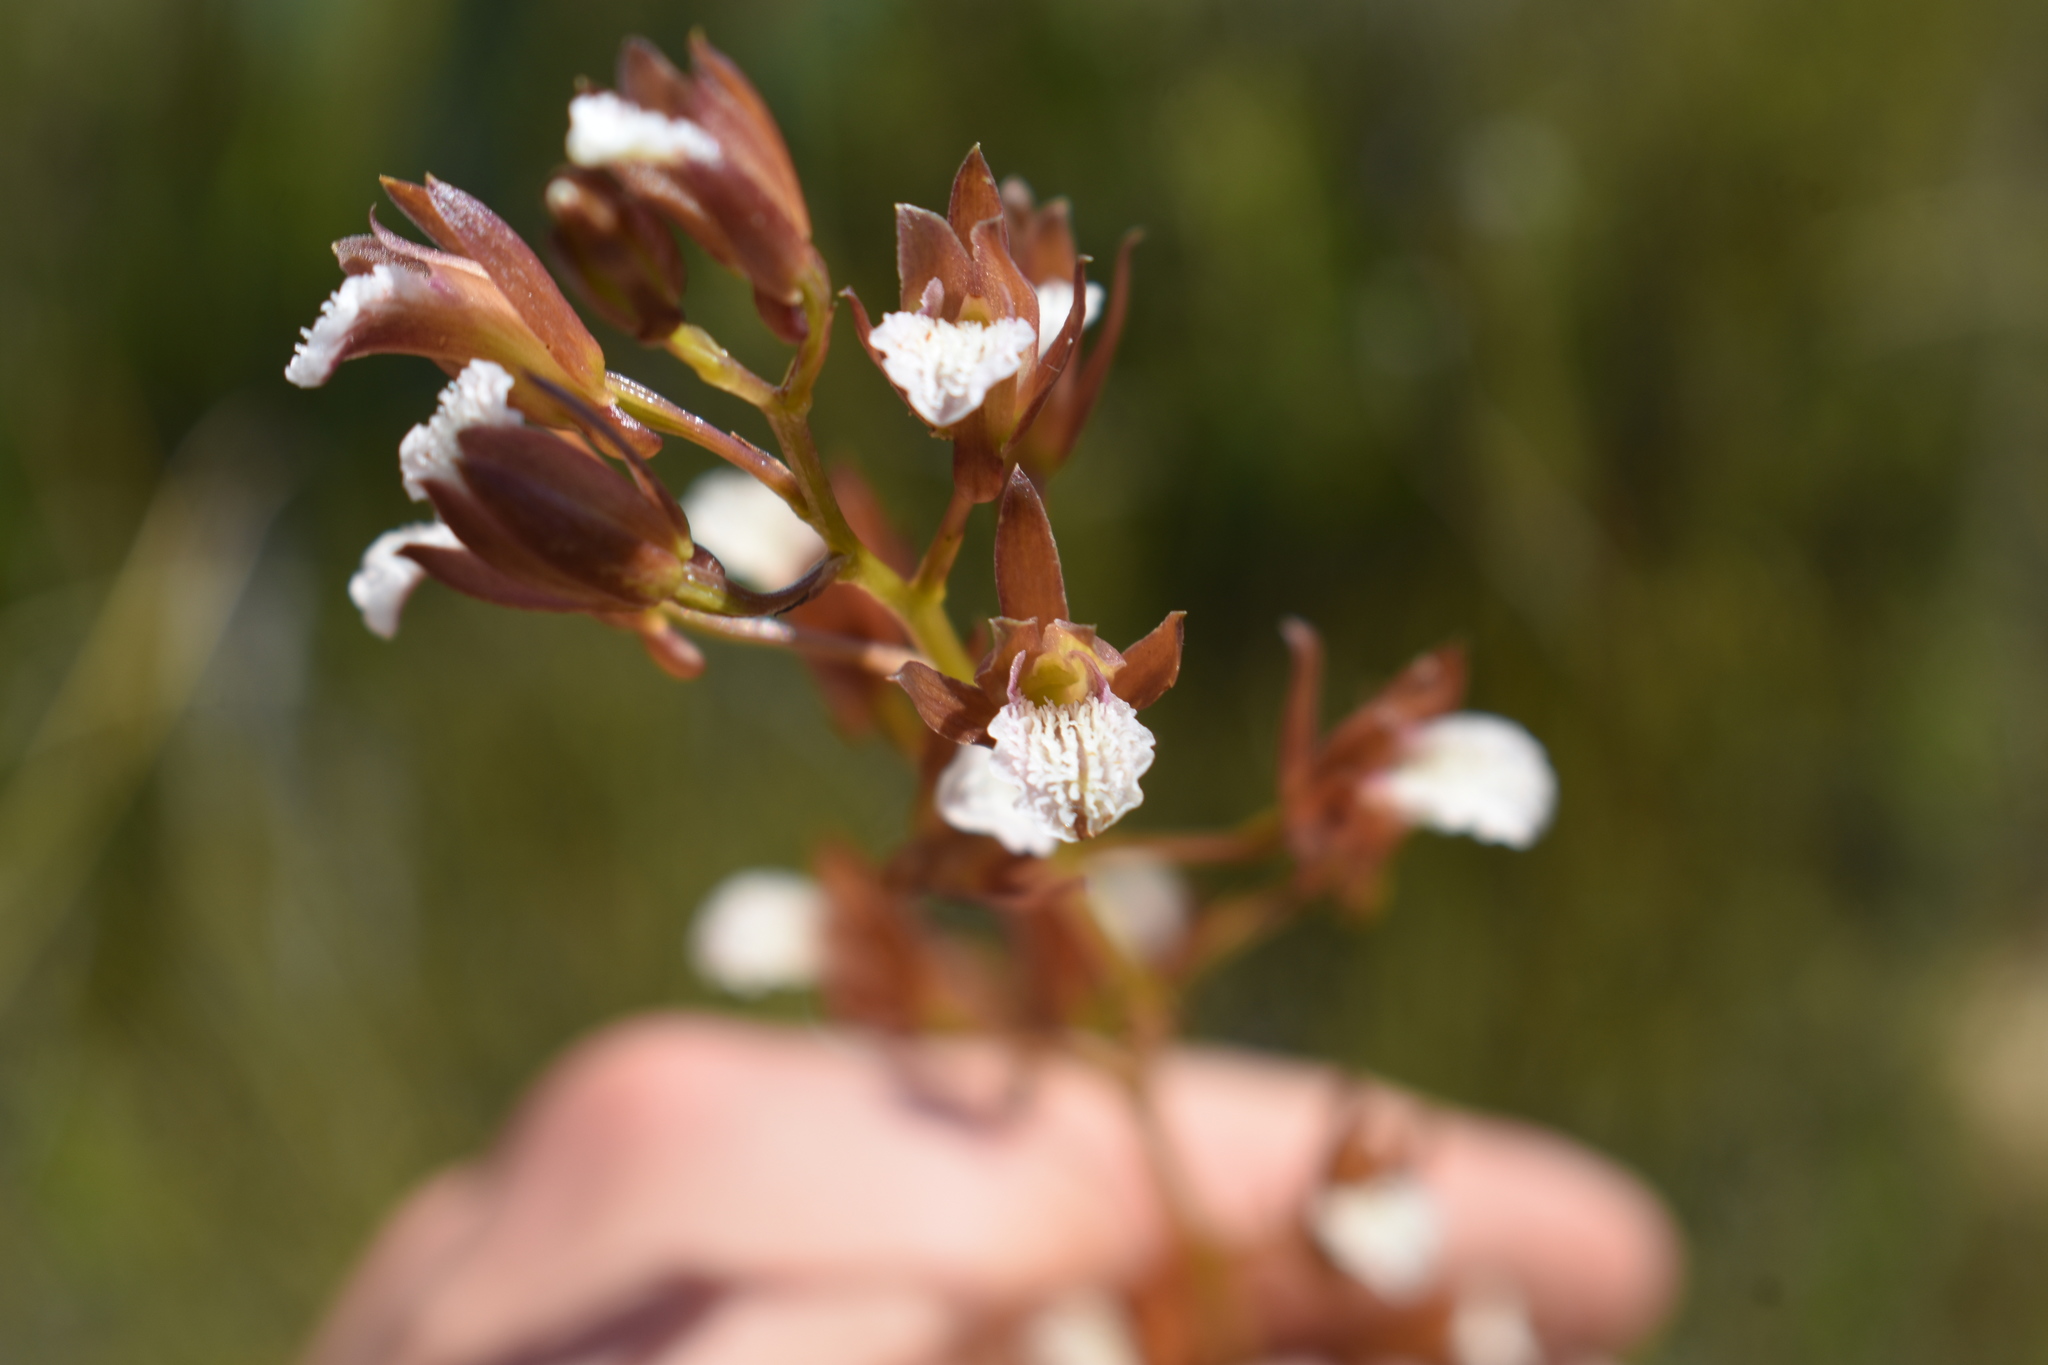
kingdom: Plantae
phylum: Tracheophyta
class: Liliopsida
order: Asparagales
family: Orchidaceae
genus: Eulophia
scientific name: Eulophia tristis
